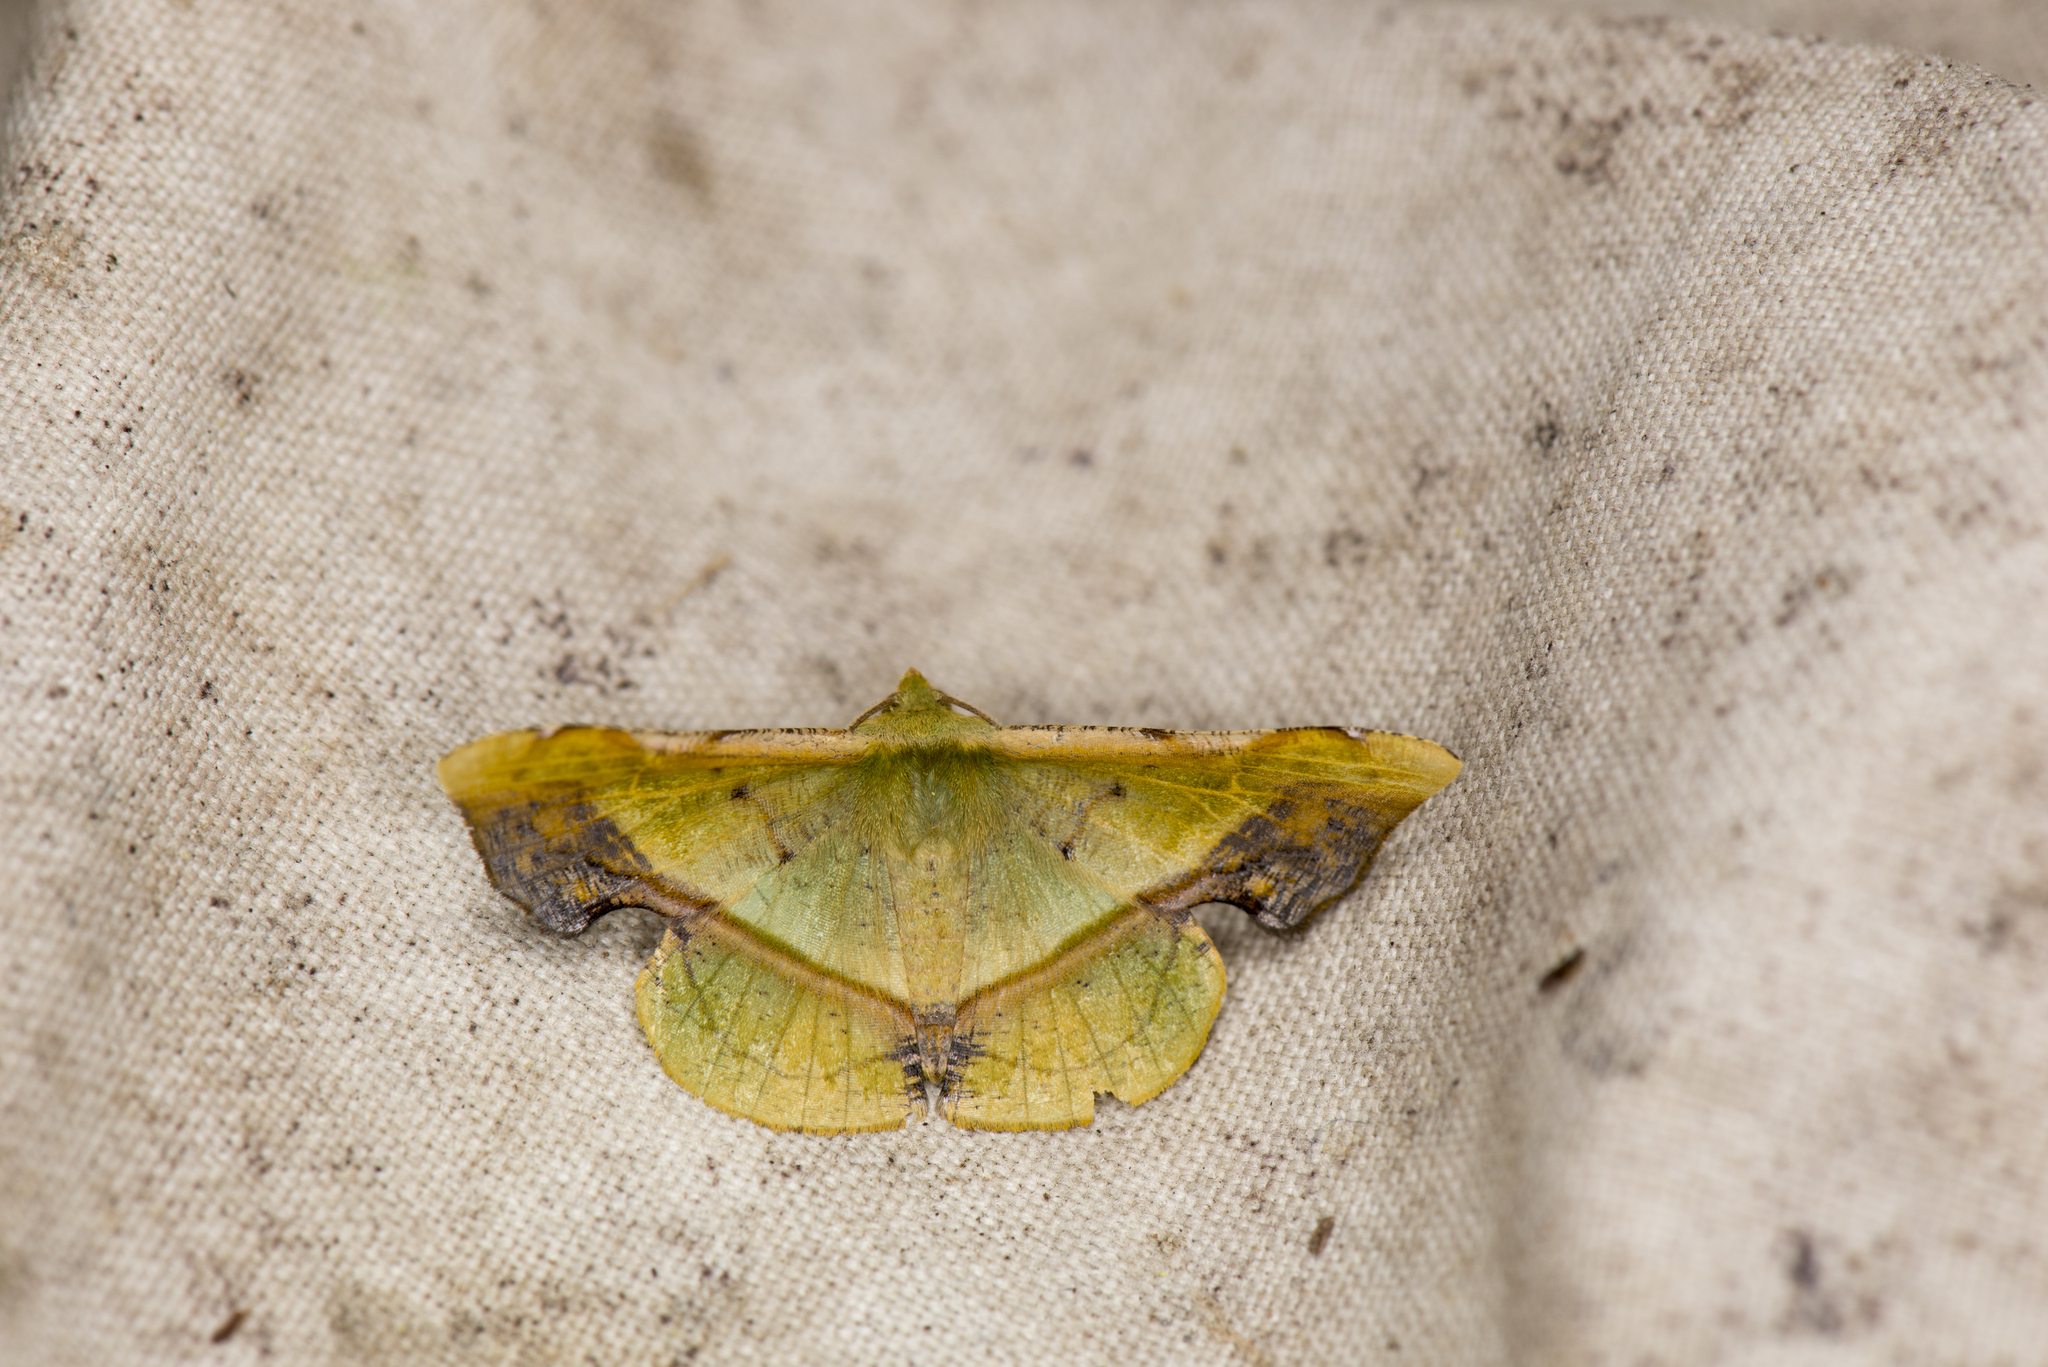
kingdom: Animalia
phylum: Arthropoda
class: Insecta
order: Lepidoptera
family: Geometridae
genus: Fascellina
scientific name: Fascellina plagiata
